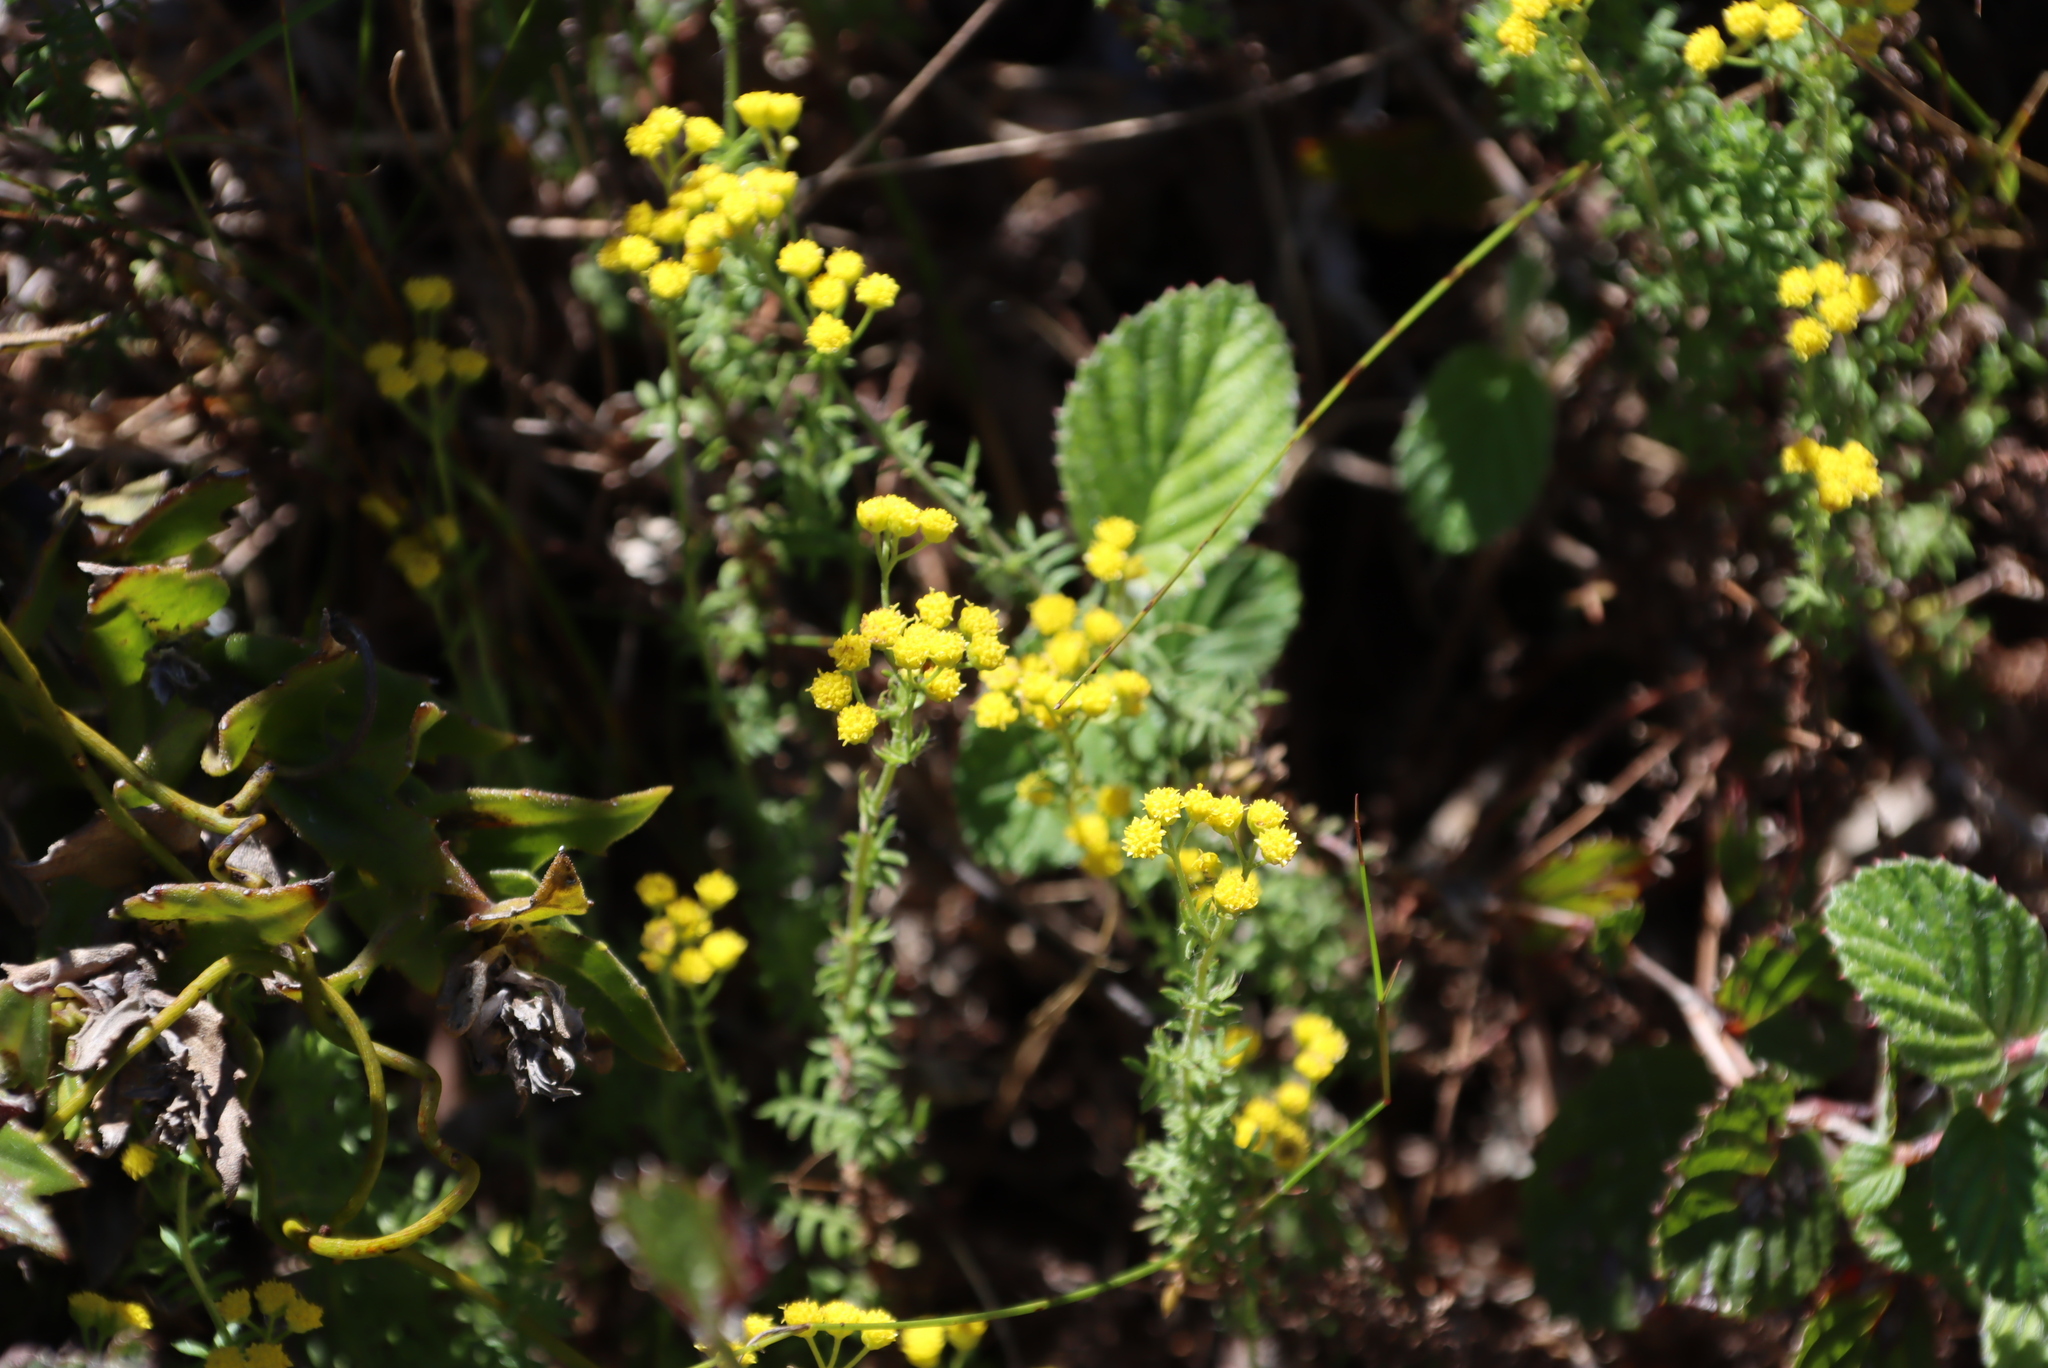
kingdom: Plantae
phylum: Tracheophyta
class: Magnoliopsida
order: Rosales
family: Rosaceae
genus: Cliffortia
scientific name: Cliffortia odorata
